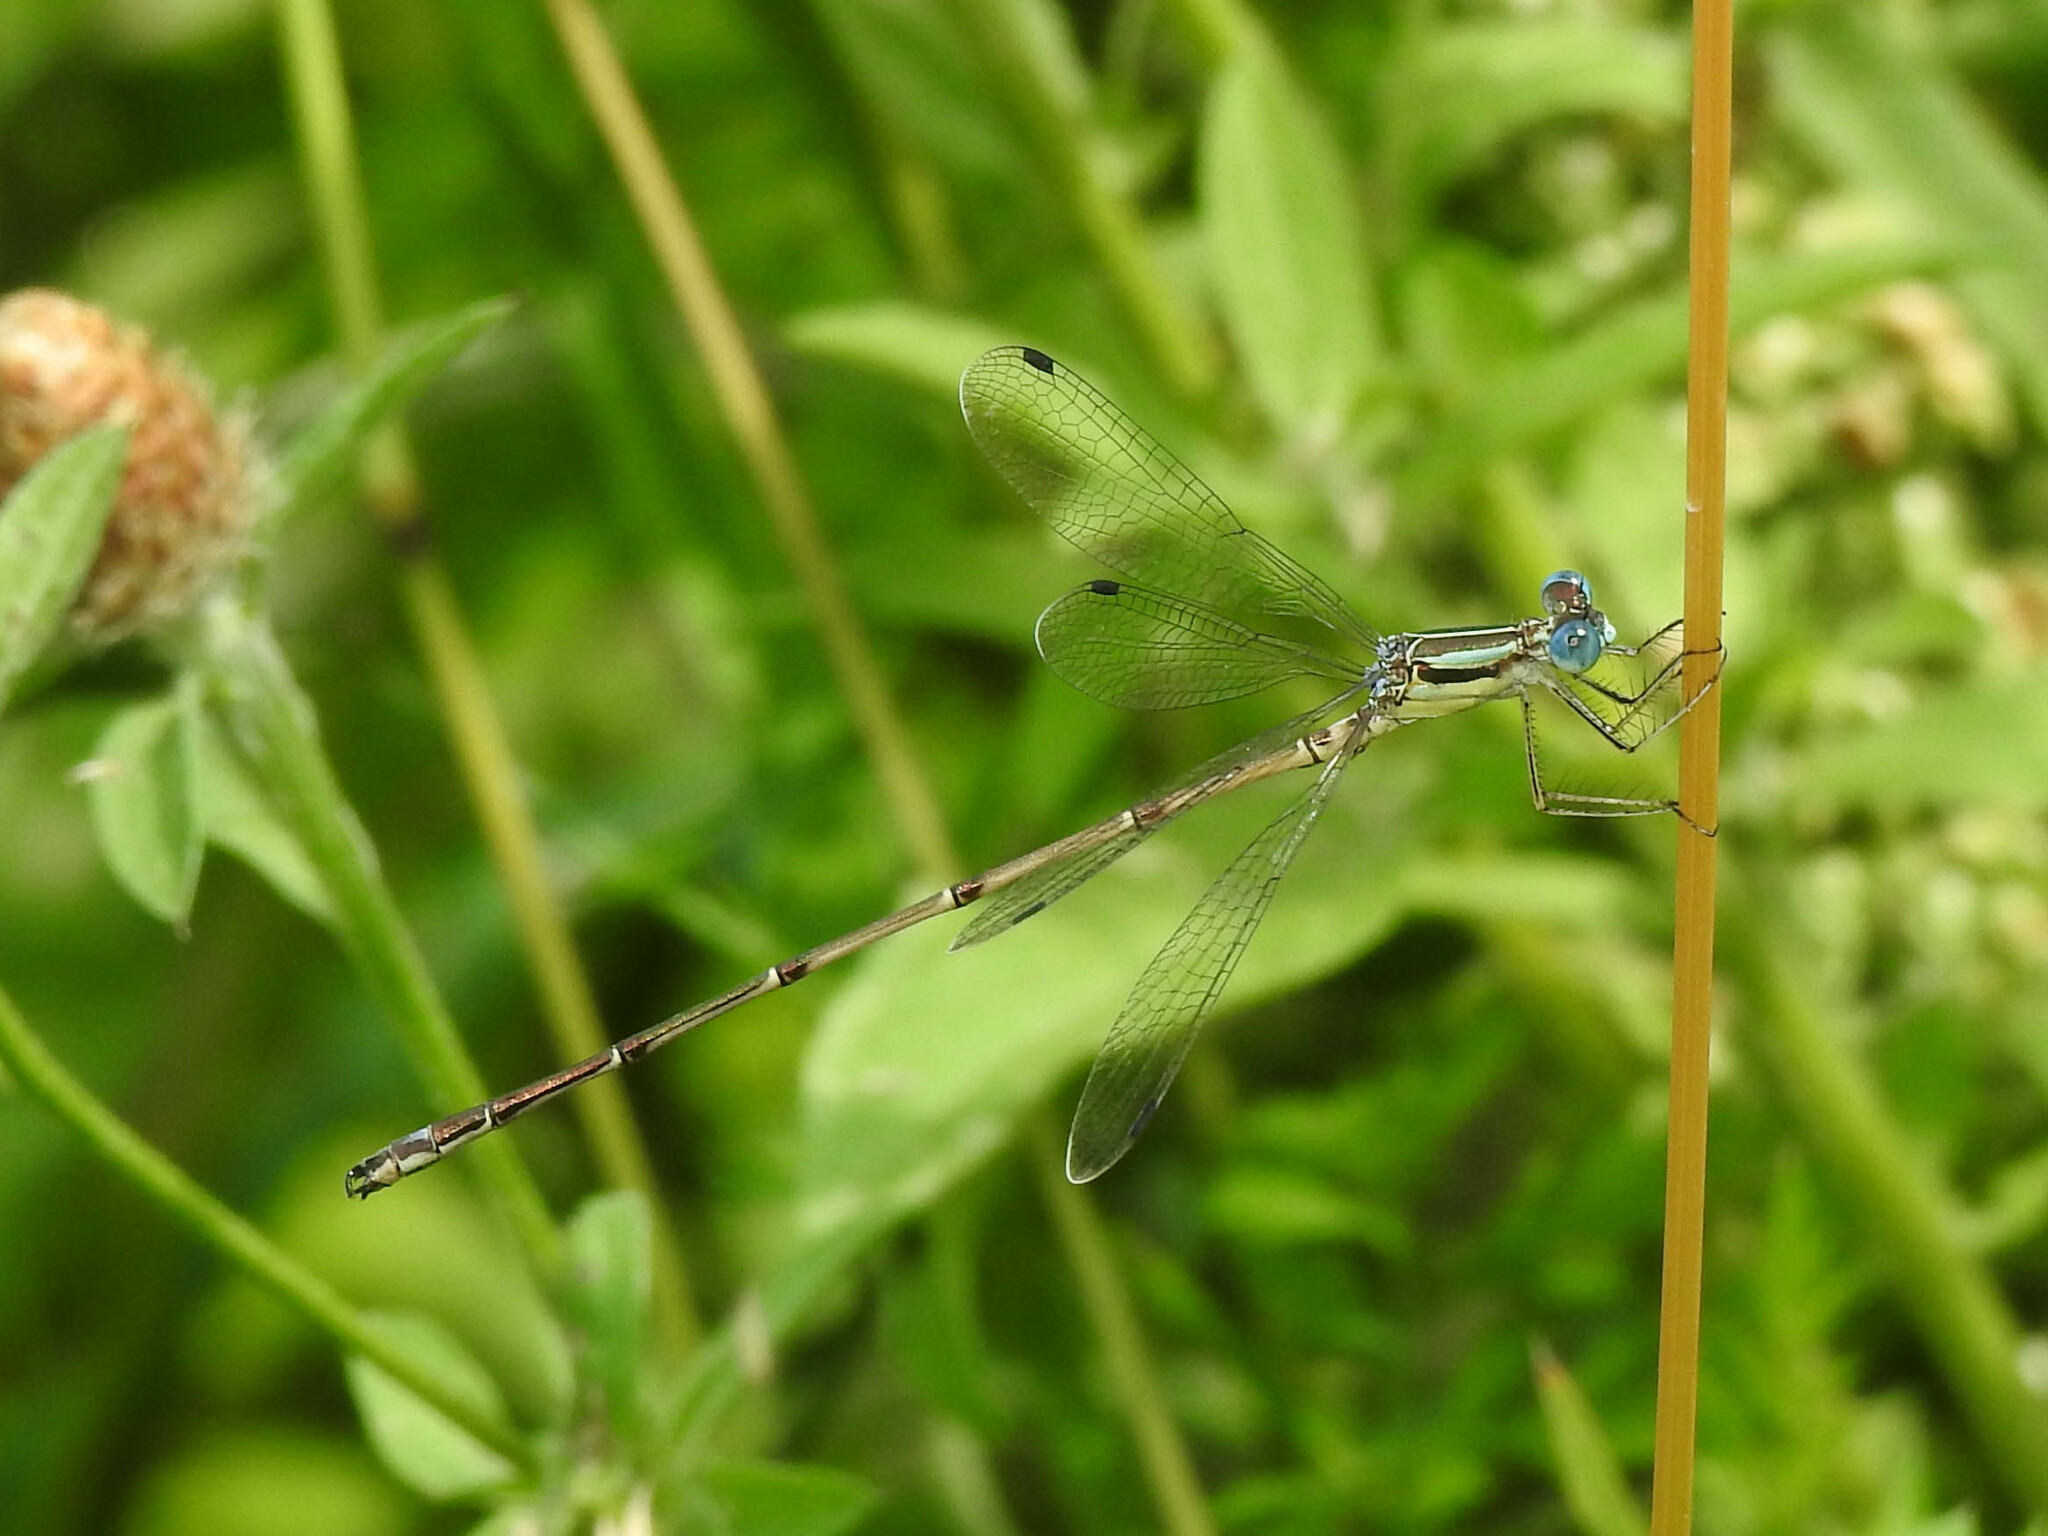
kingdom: Animalia
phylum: Arthropoda
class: Insecta
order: Odonata
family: Lestidae
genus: Lestes
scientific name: Lestes rectangularis
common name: Slender spreadwing
